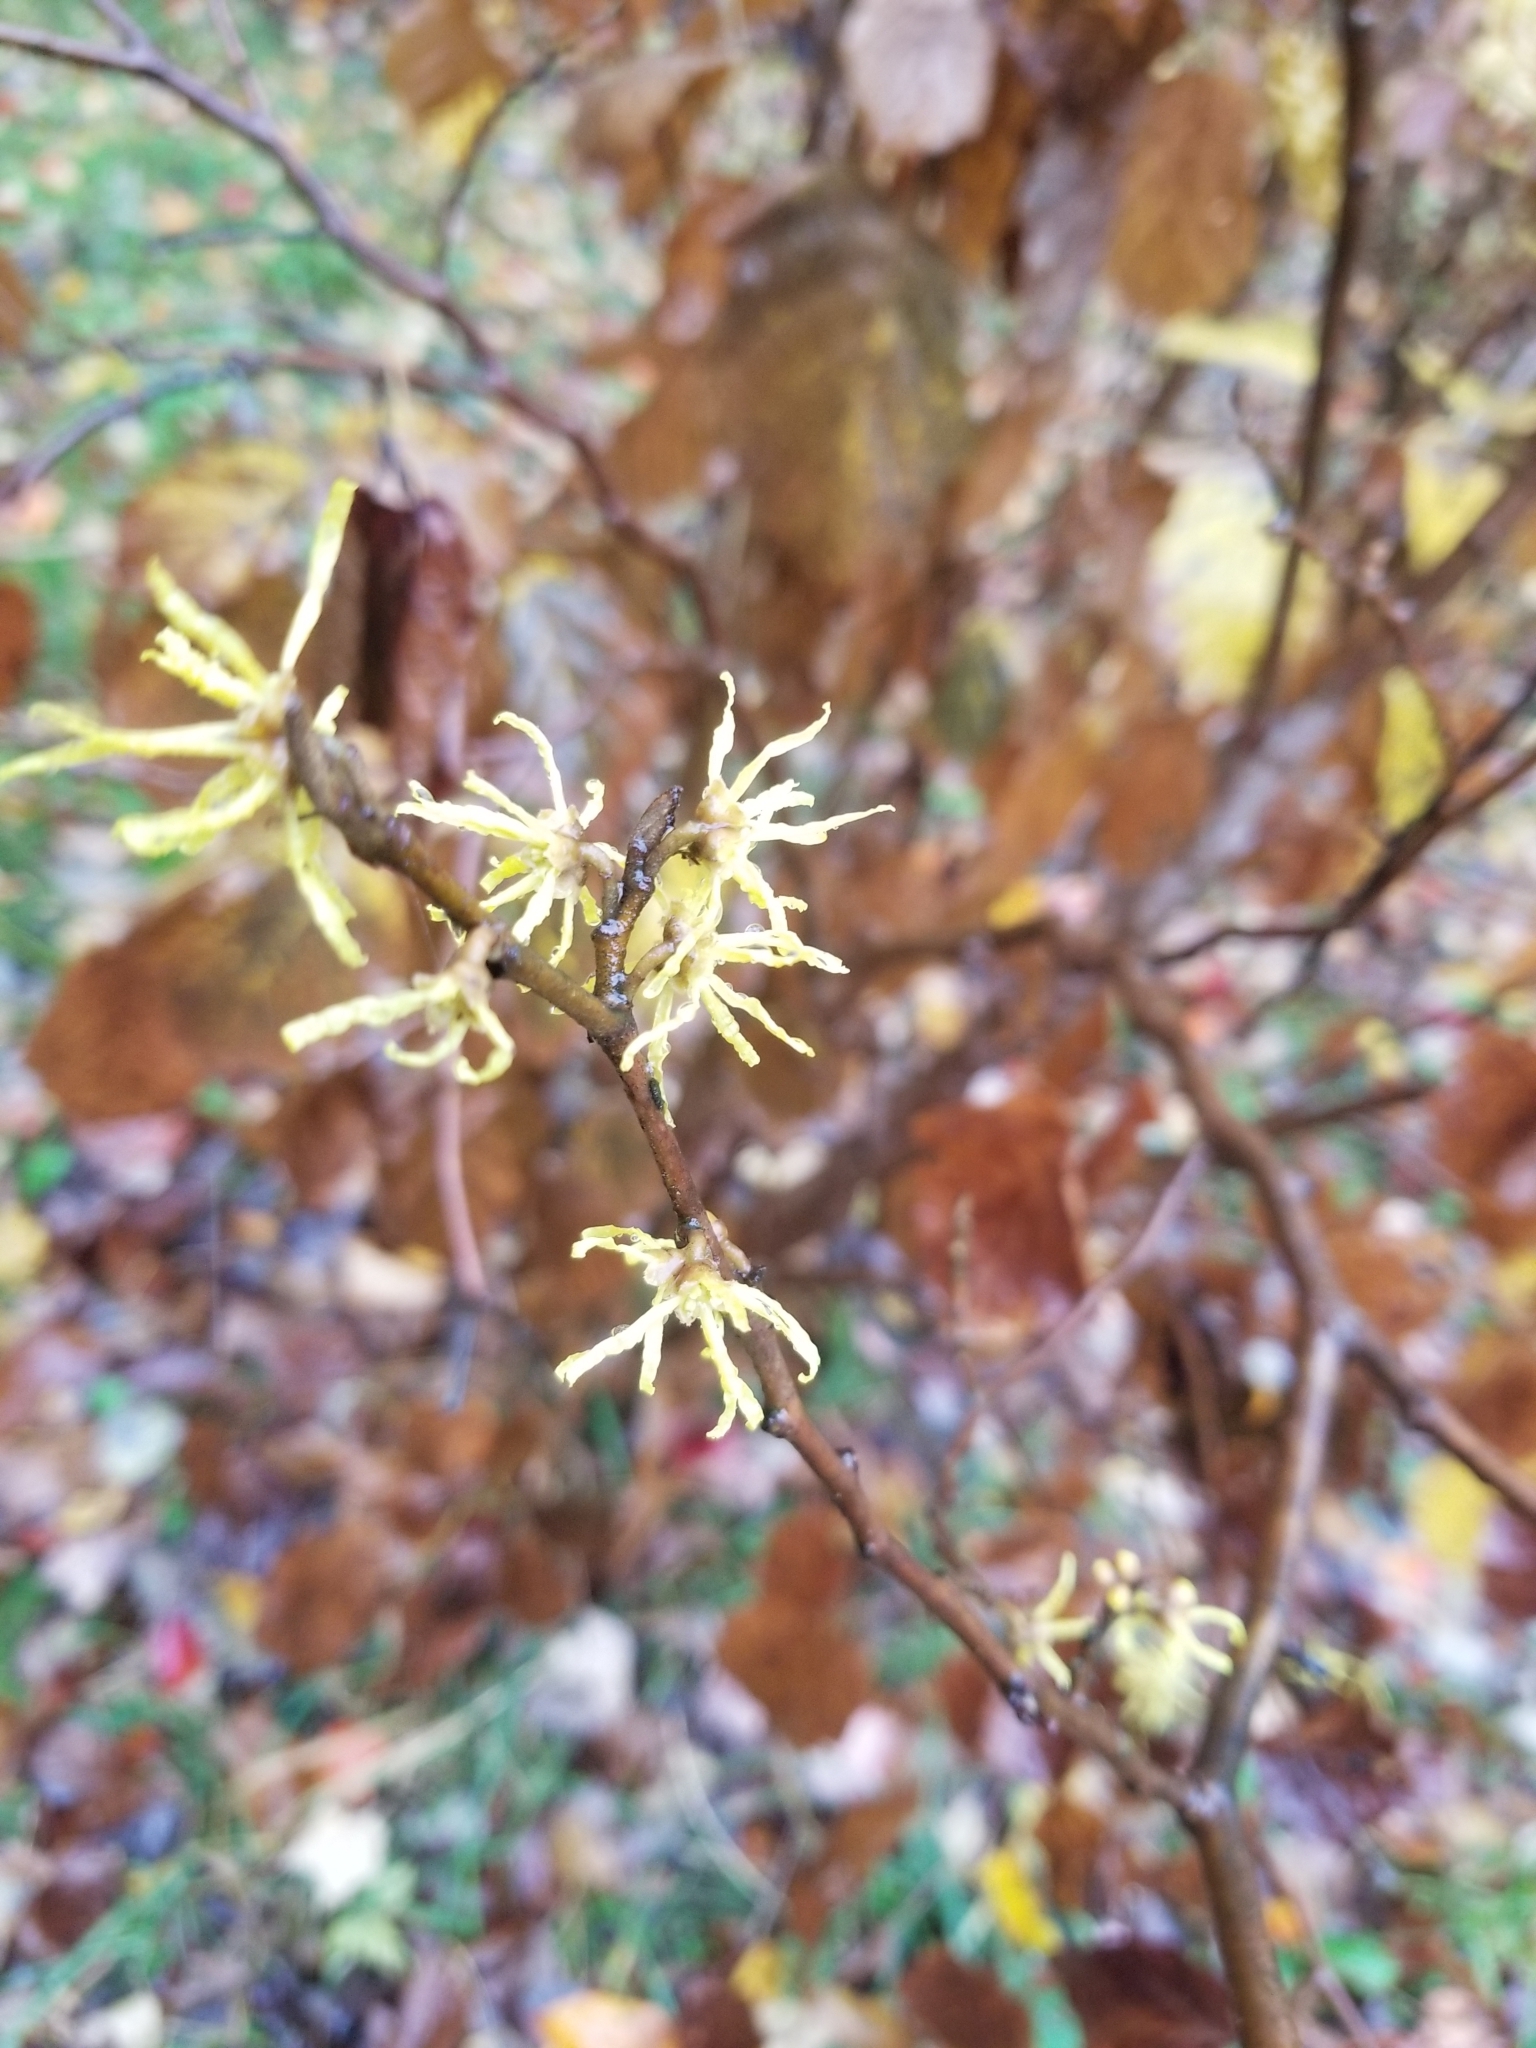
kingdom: Plantae
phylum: Tracheophyta
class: Magnoliopsida
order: Saxifragales
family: Hamamelidaceae
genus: Hamamelis
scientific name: Hamamelis virginiana
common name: Witch-hazel
